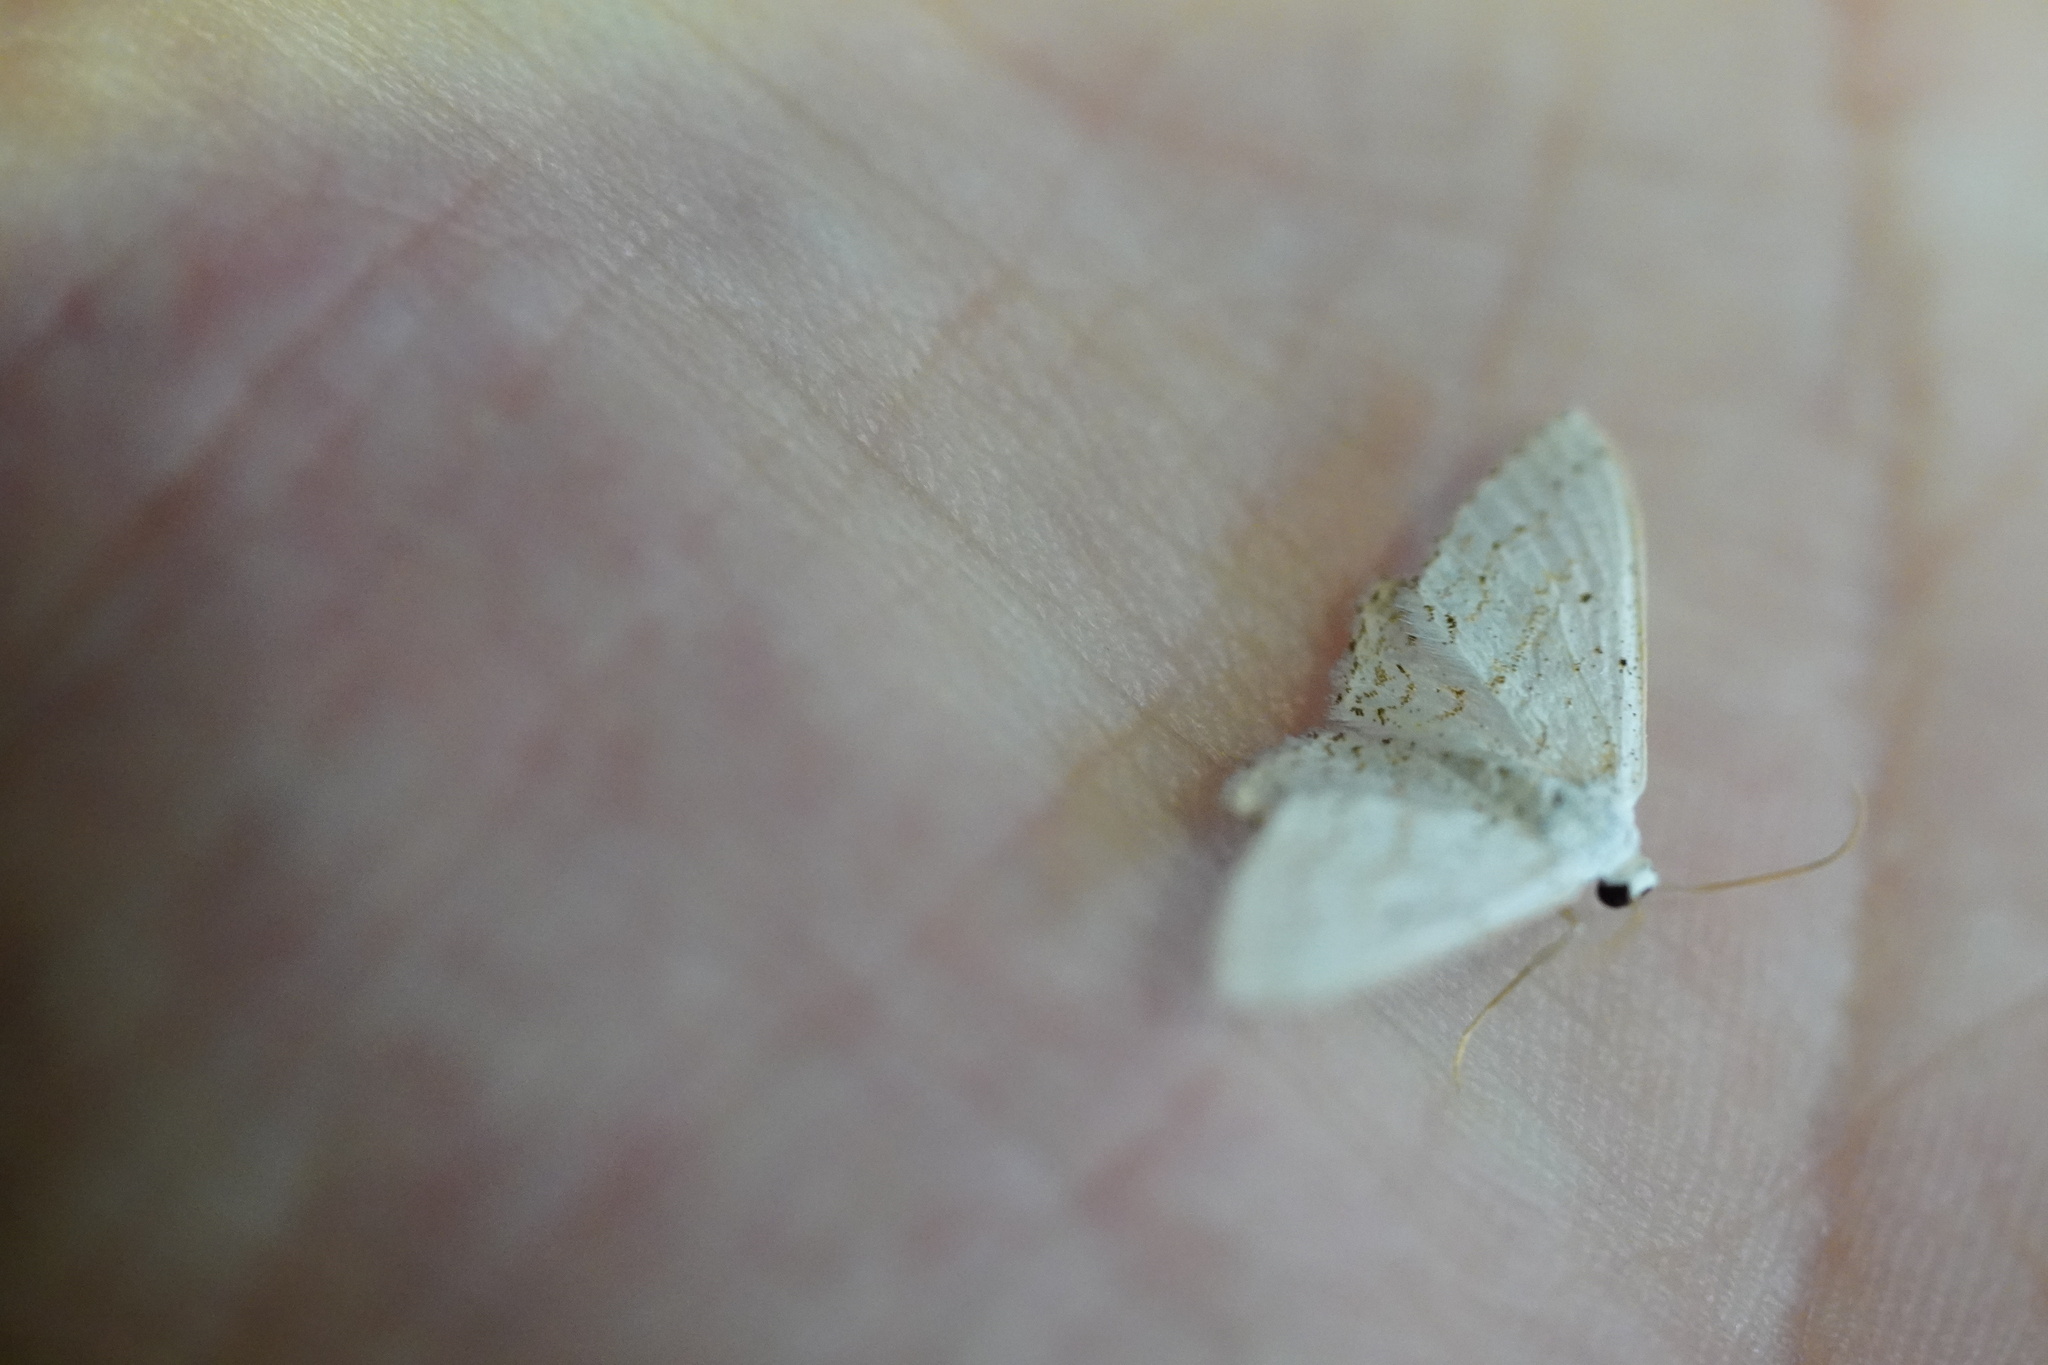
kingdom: Animalia
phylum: Arthropoda
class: Insecta
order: Lepidoptera
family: Geometridae
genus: Idaea
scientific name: Idaea tacturata
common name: Dot-lined wave
